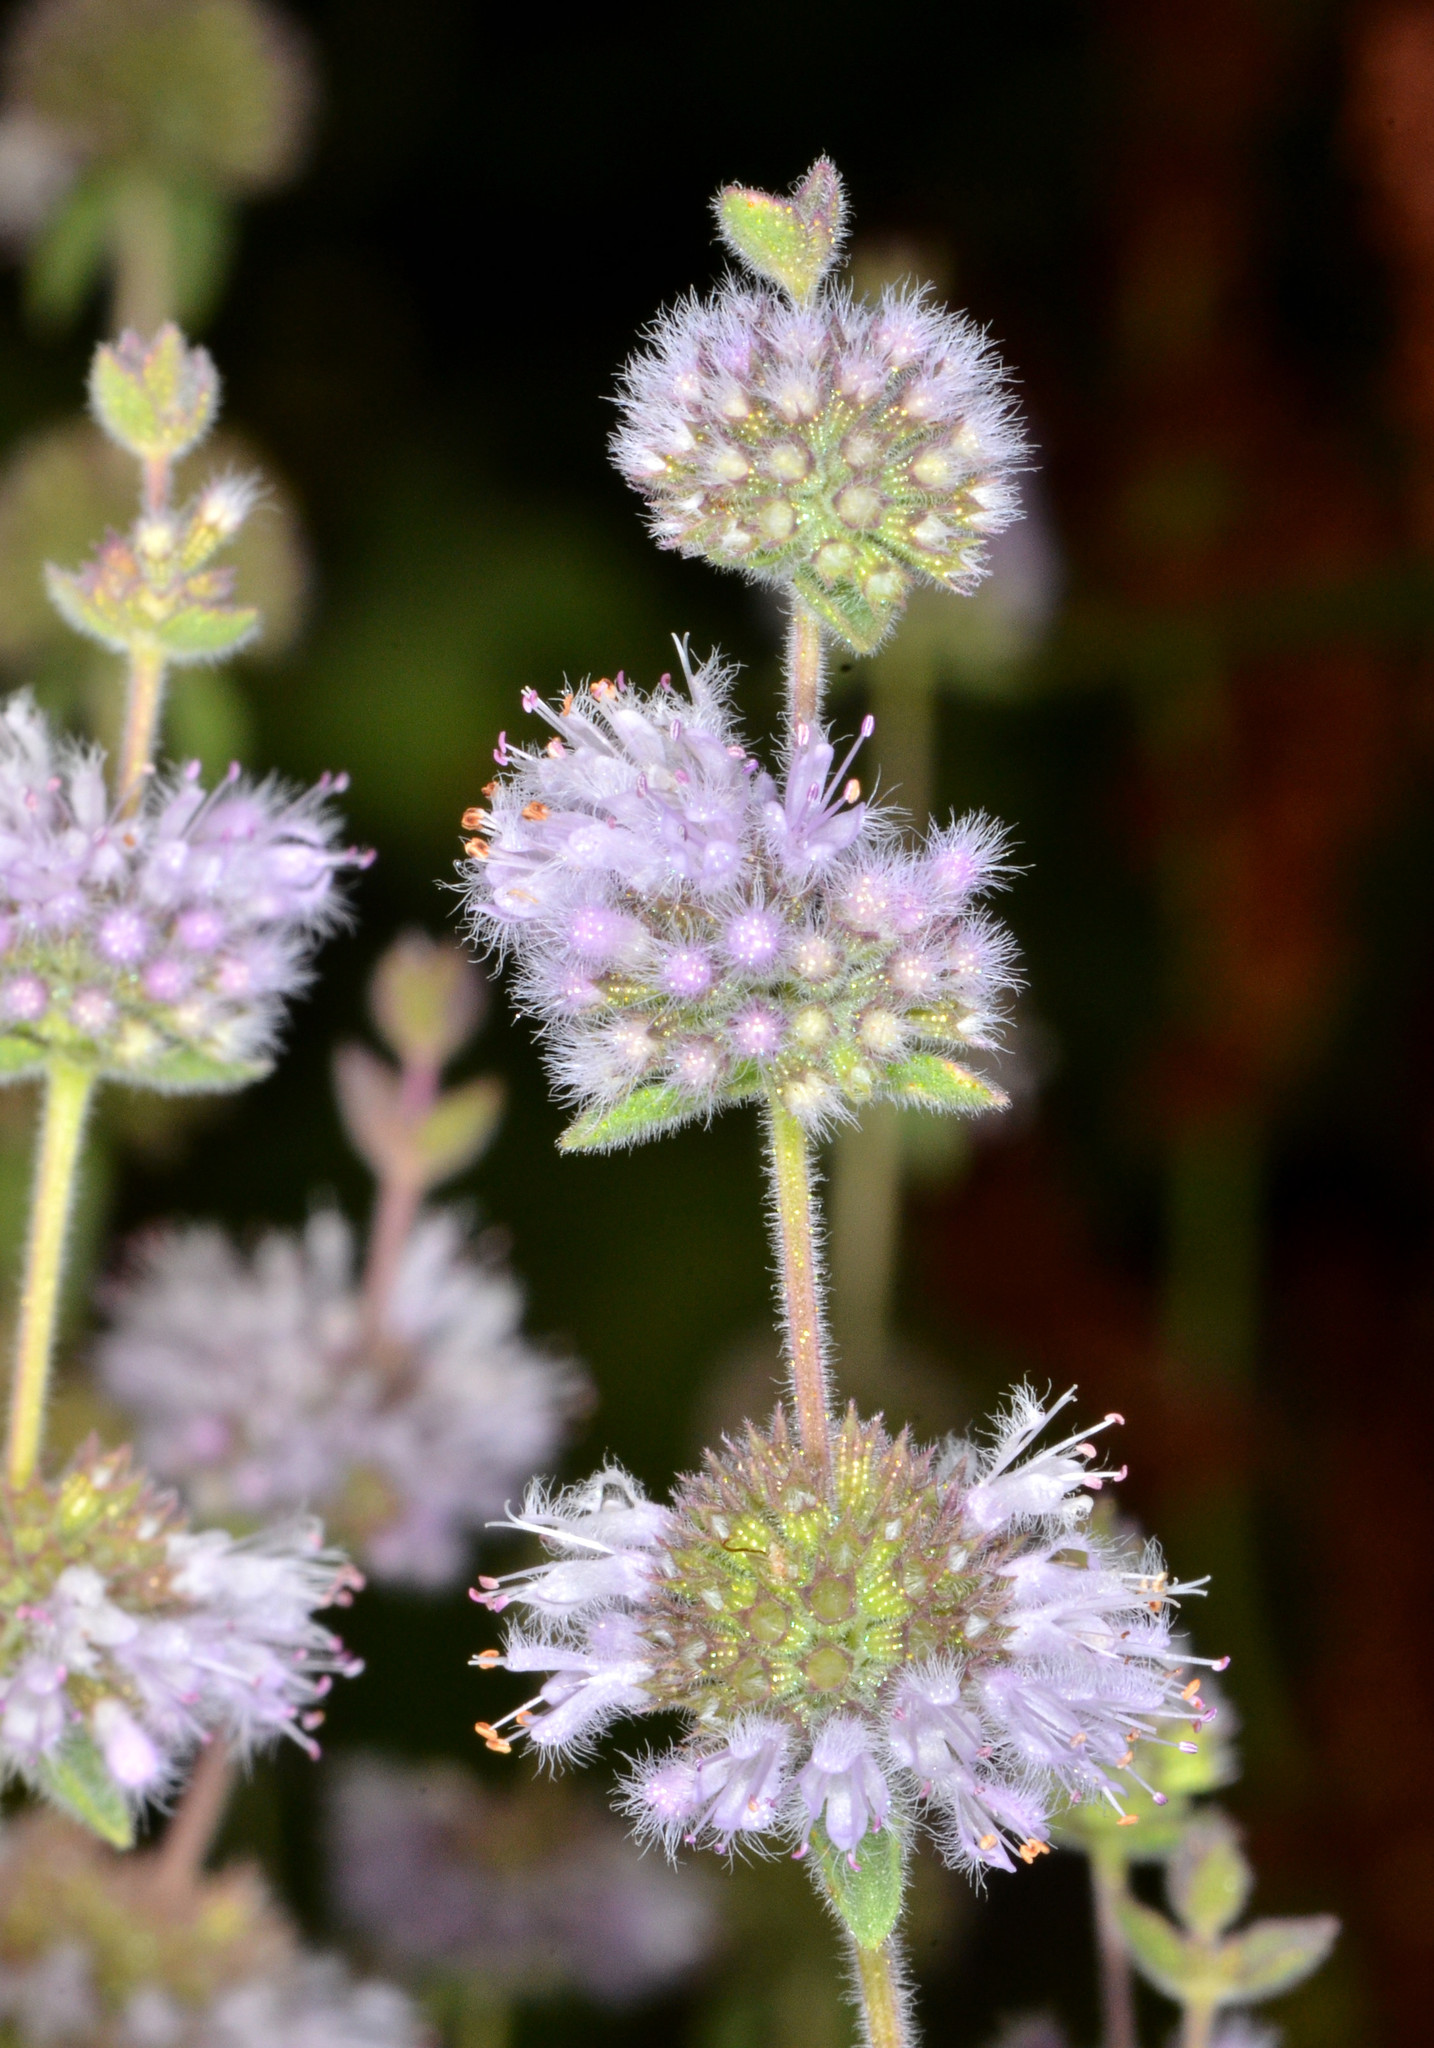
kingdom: Plantae
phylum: Tracheophyta
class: Magnoliopsida
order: Lamiales
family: Lamiaceae
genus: Mentha
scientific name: Mentha pulegium
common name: Pennyroyal
